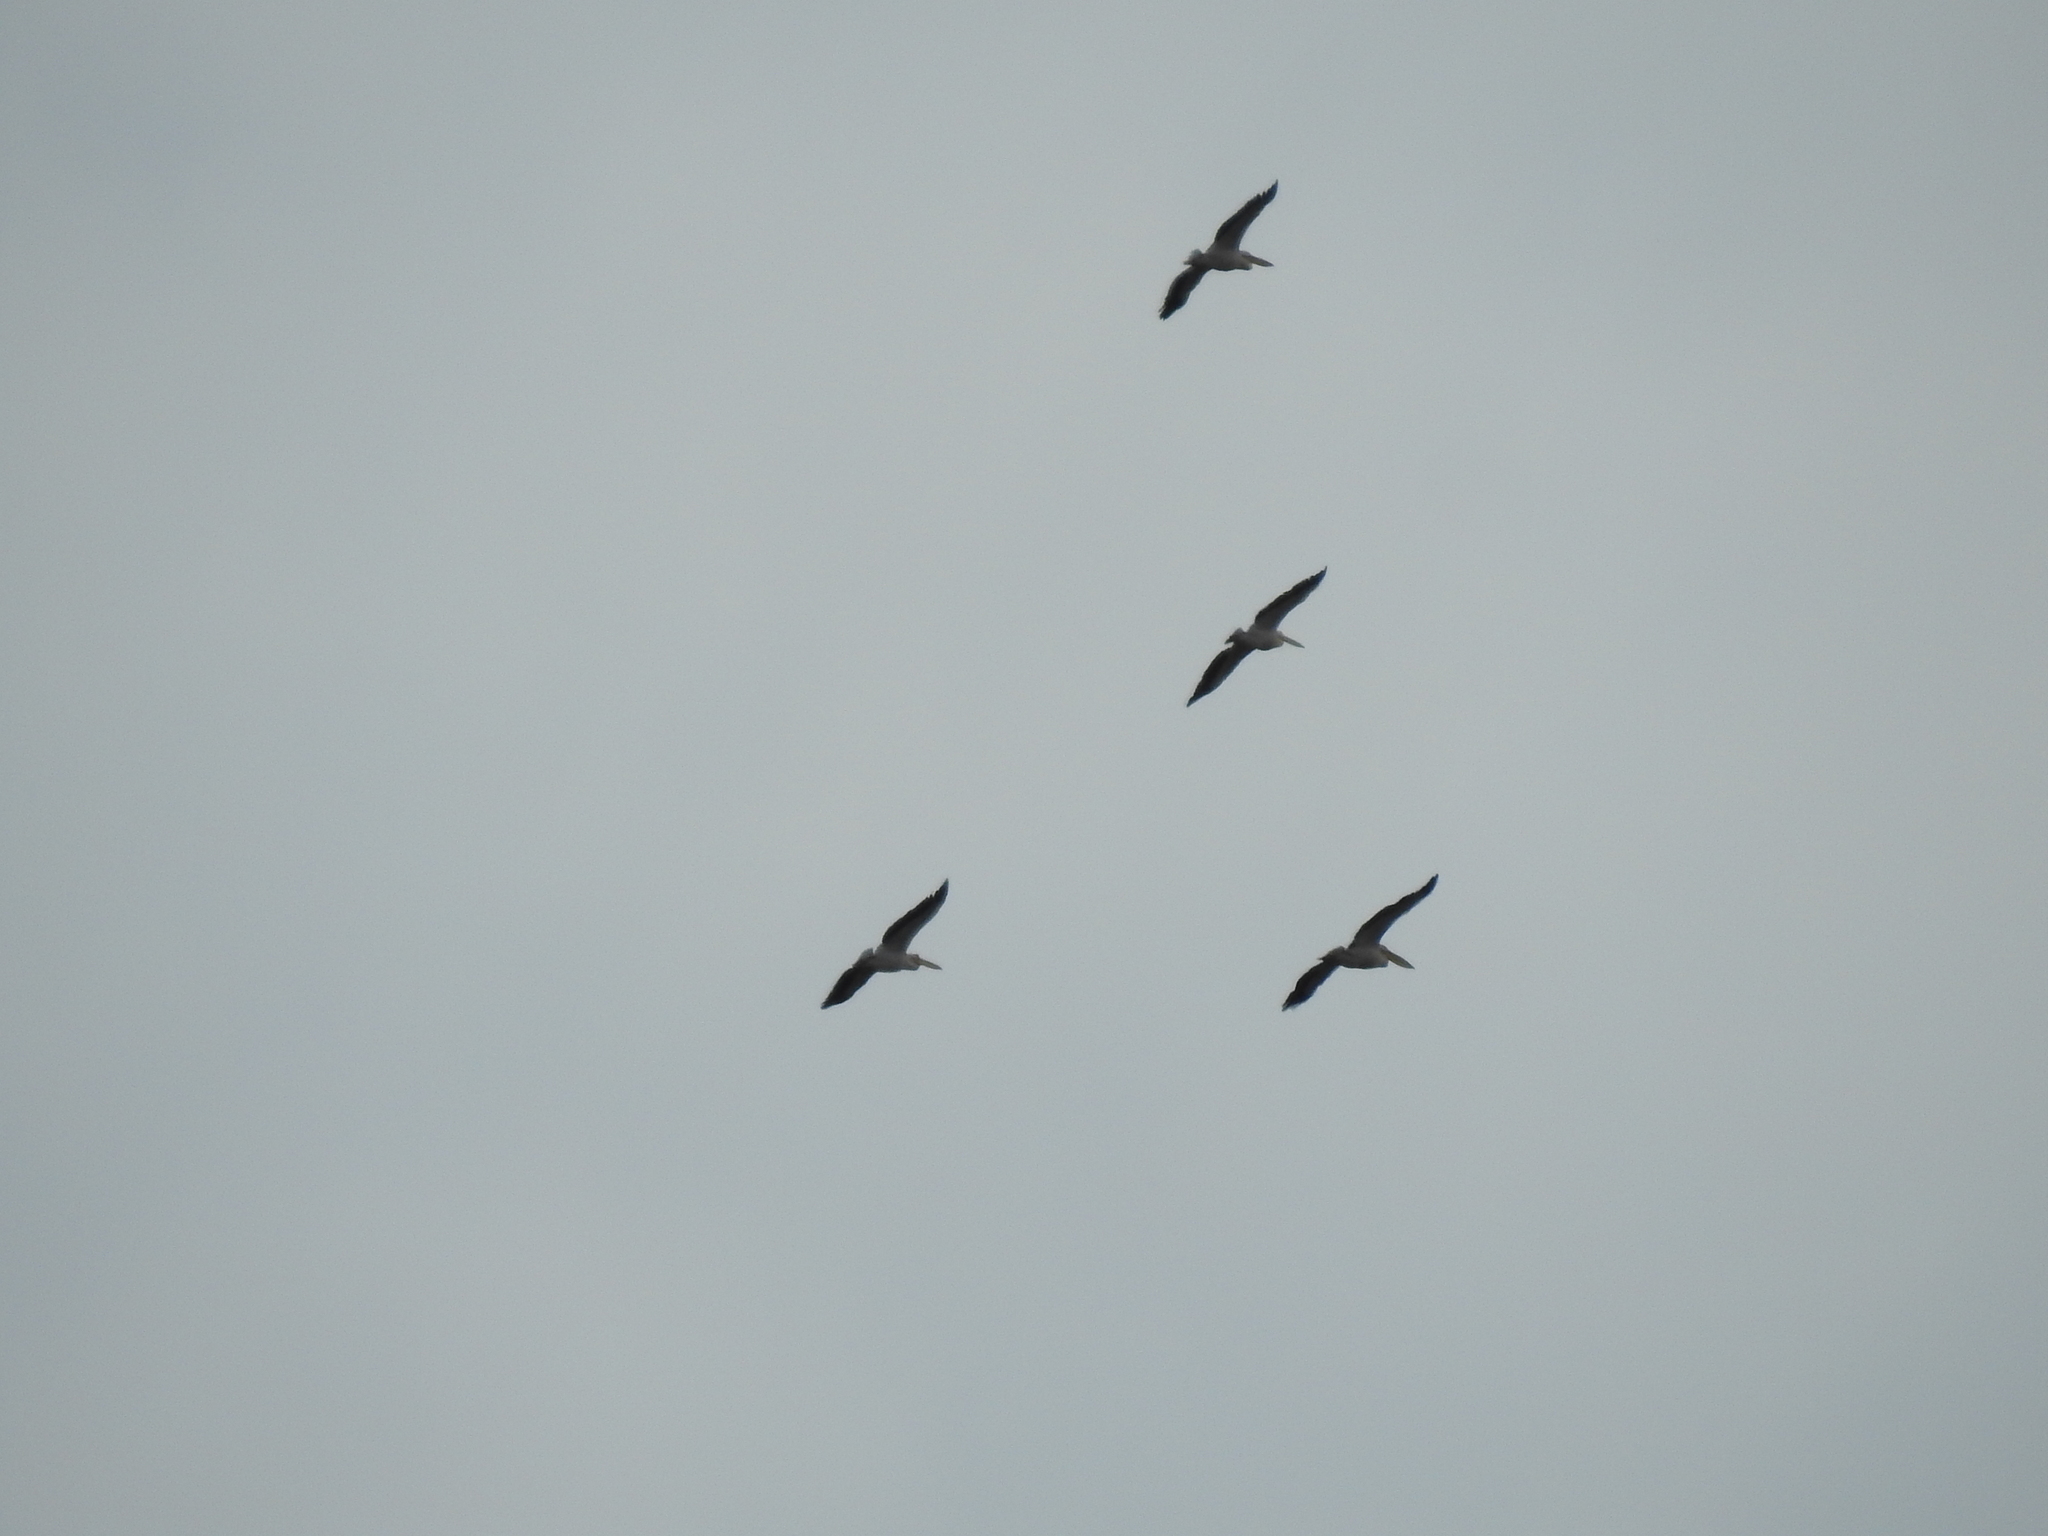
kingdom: Animalia
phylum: Chordata
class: Aves
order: Pelecaniformes
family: Pelecanidae
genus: Pelecanus
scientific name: Pelecanus onocrotalus
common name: Great white pelican
